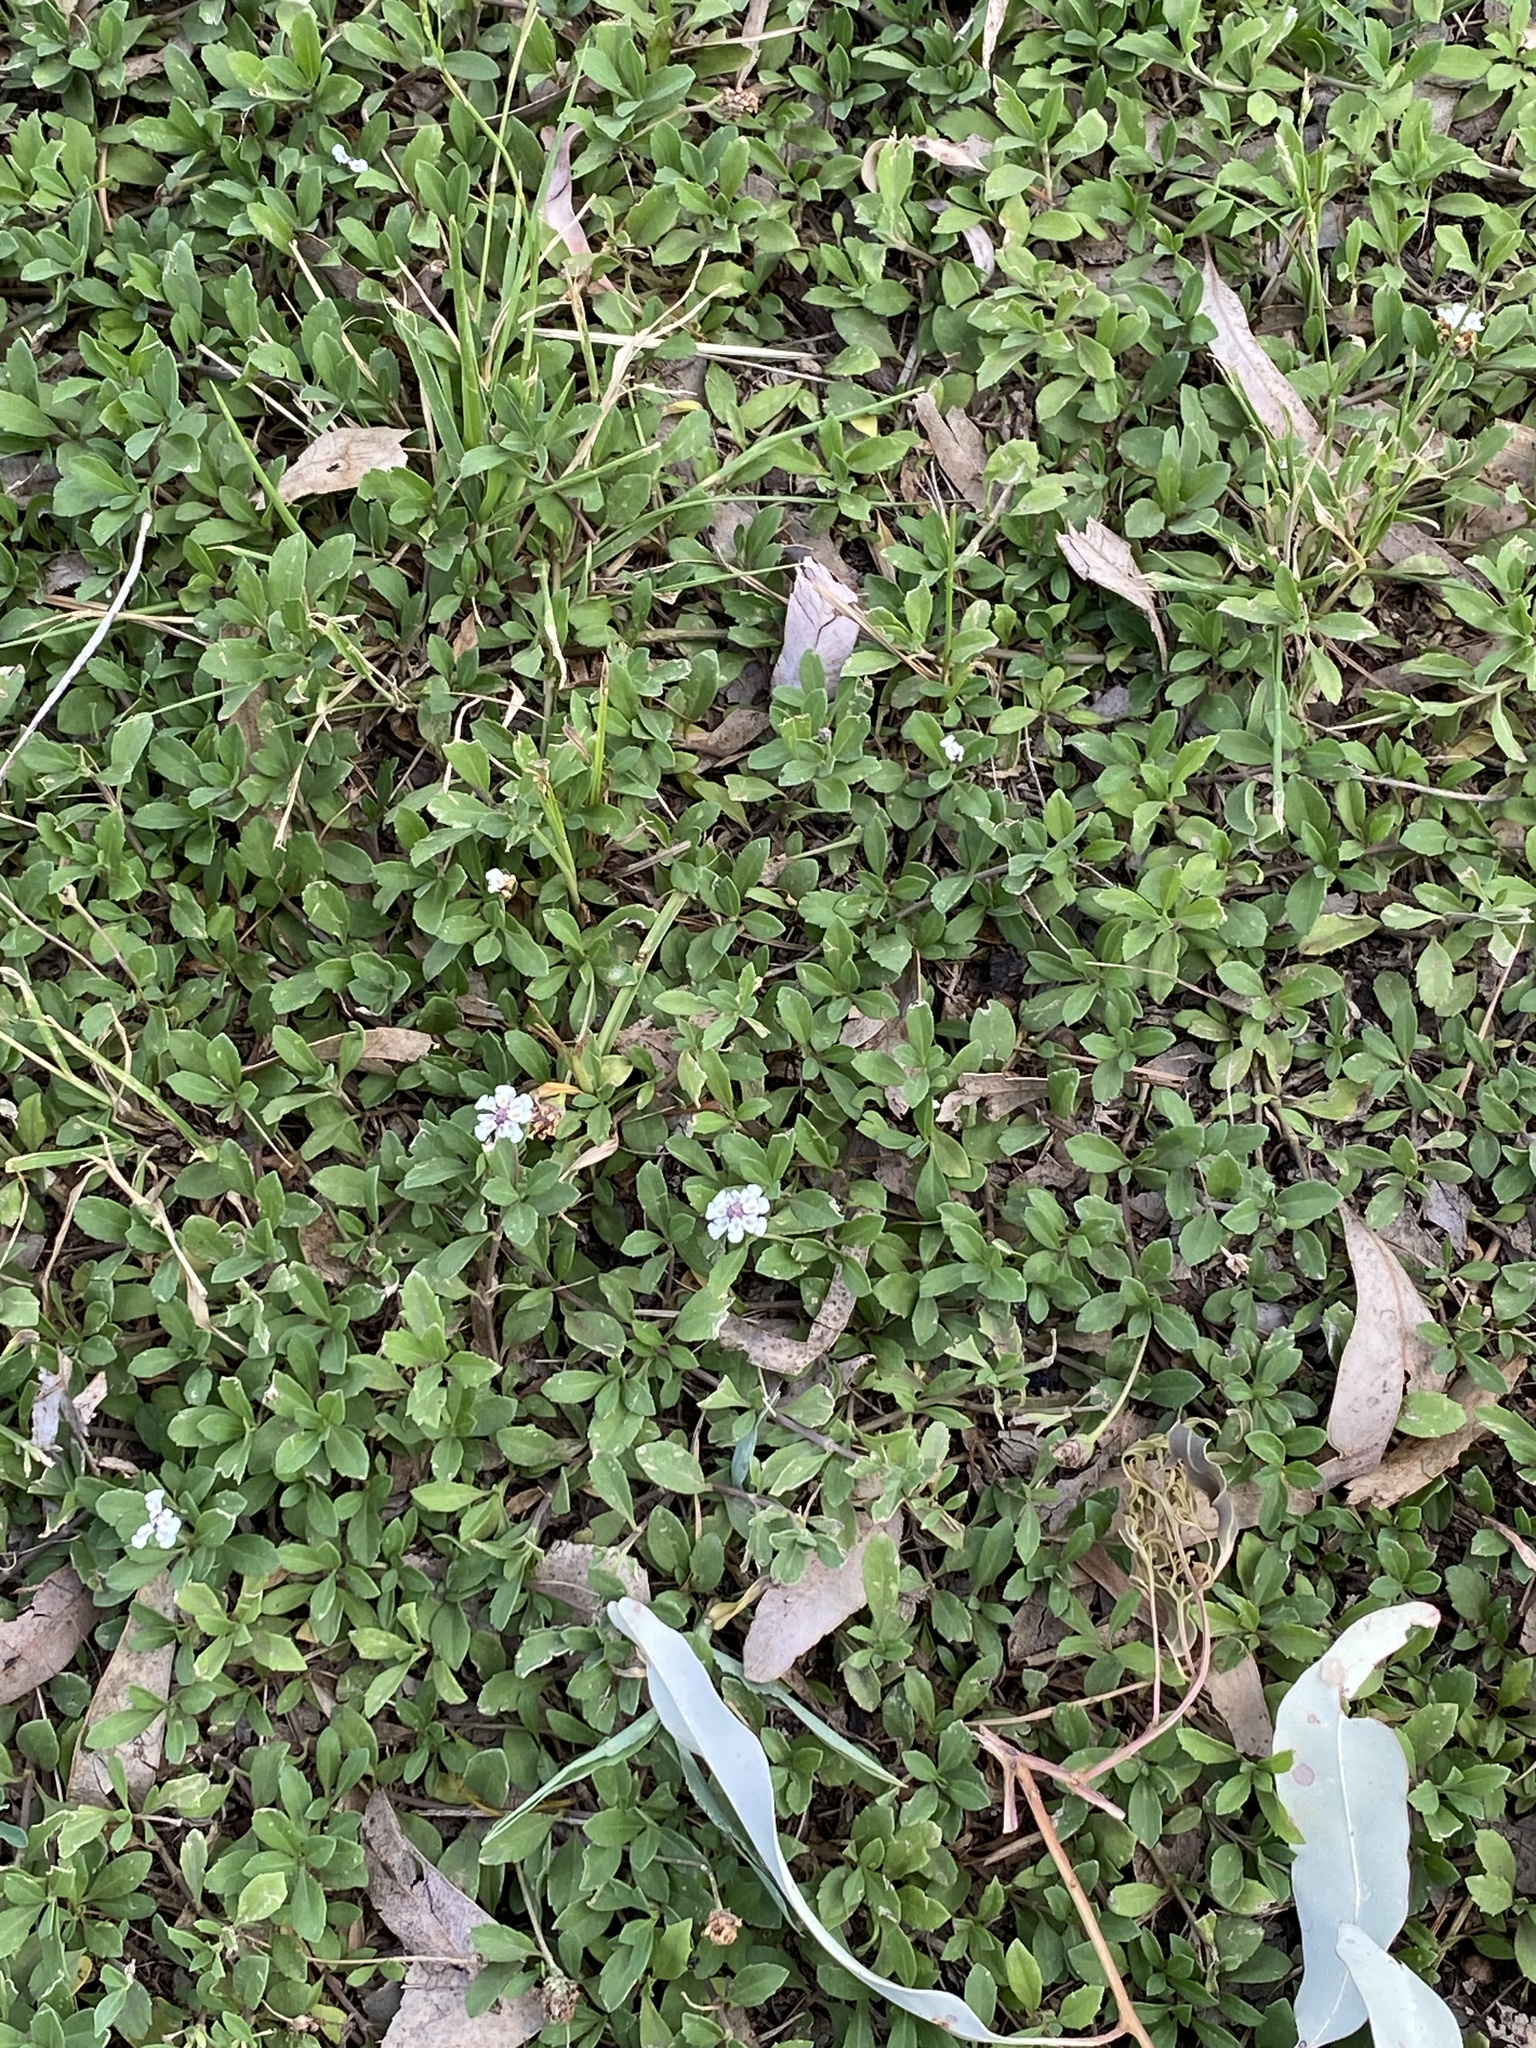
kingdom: Plantae
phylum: Tracheophyta
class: Magnoliopsida
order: Lamiales
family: Verbenaceae
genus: Phyla
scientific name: Phyla nodiflora
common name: Frogfruit
